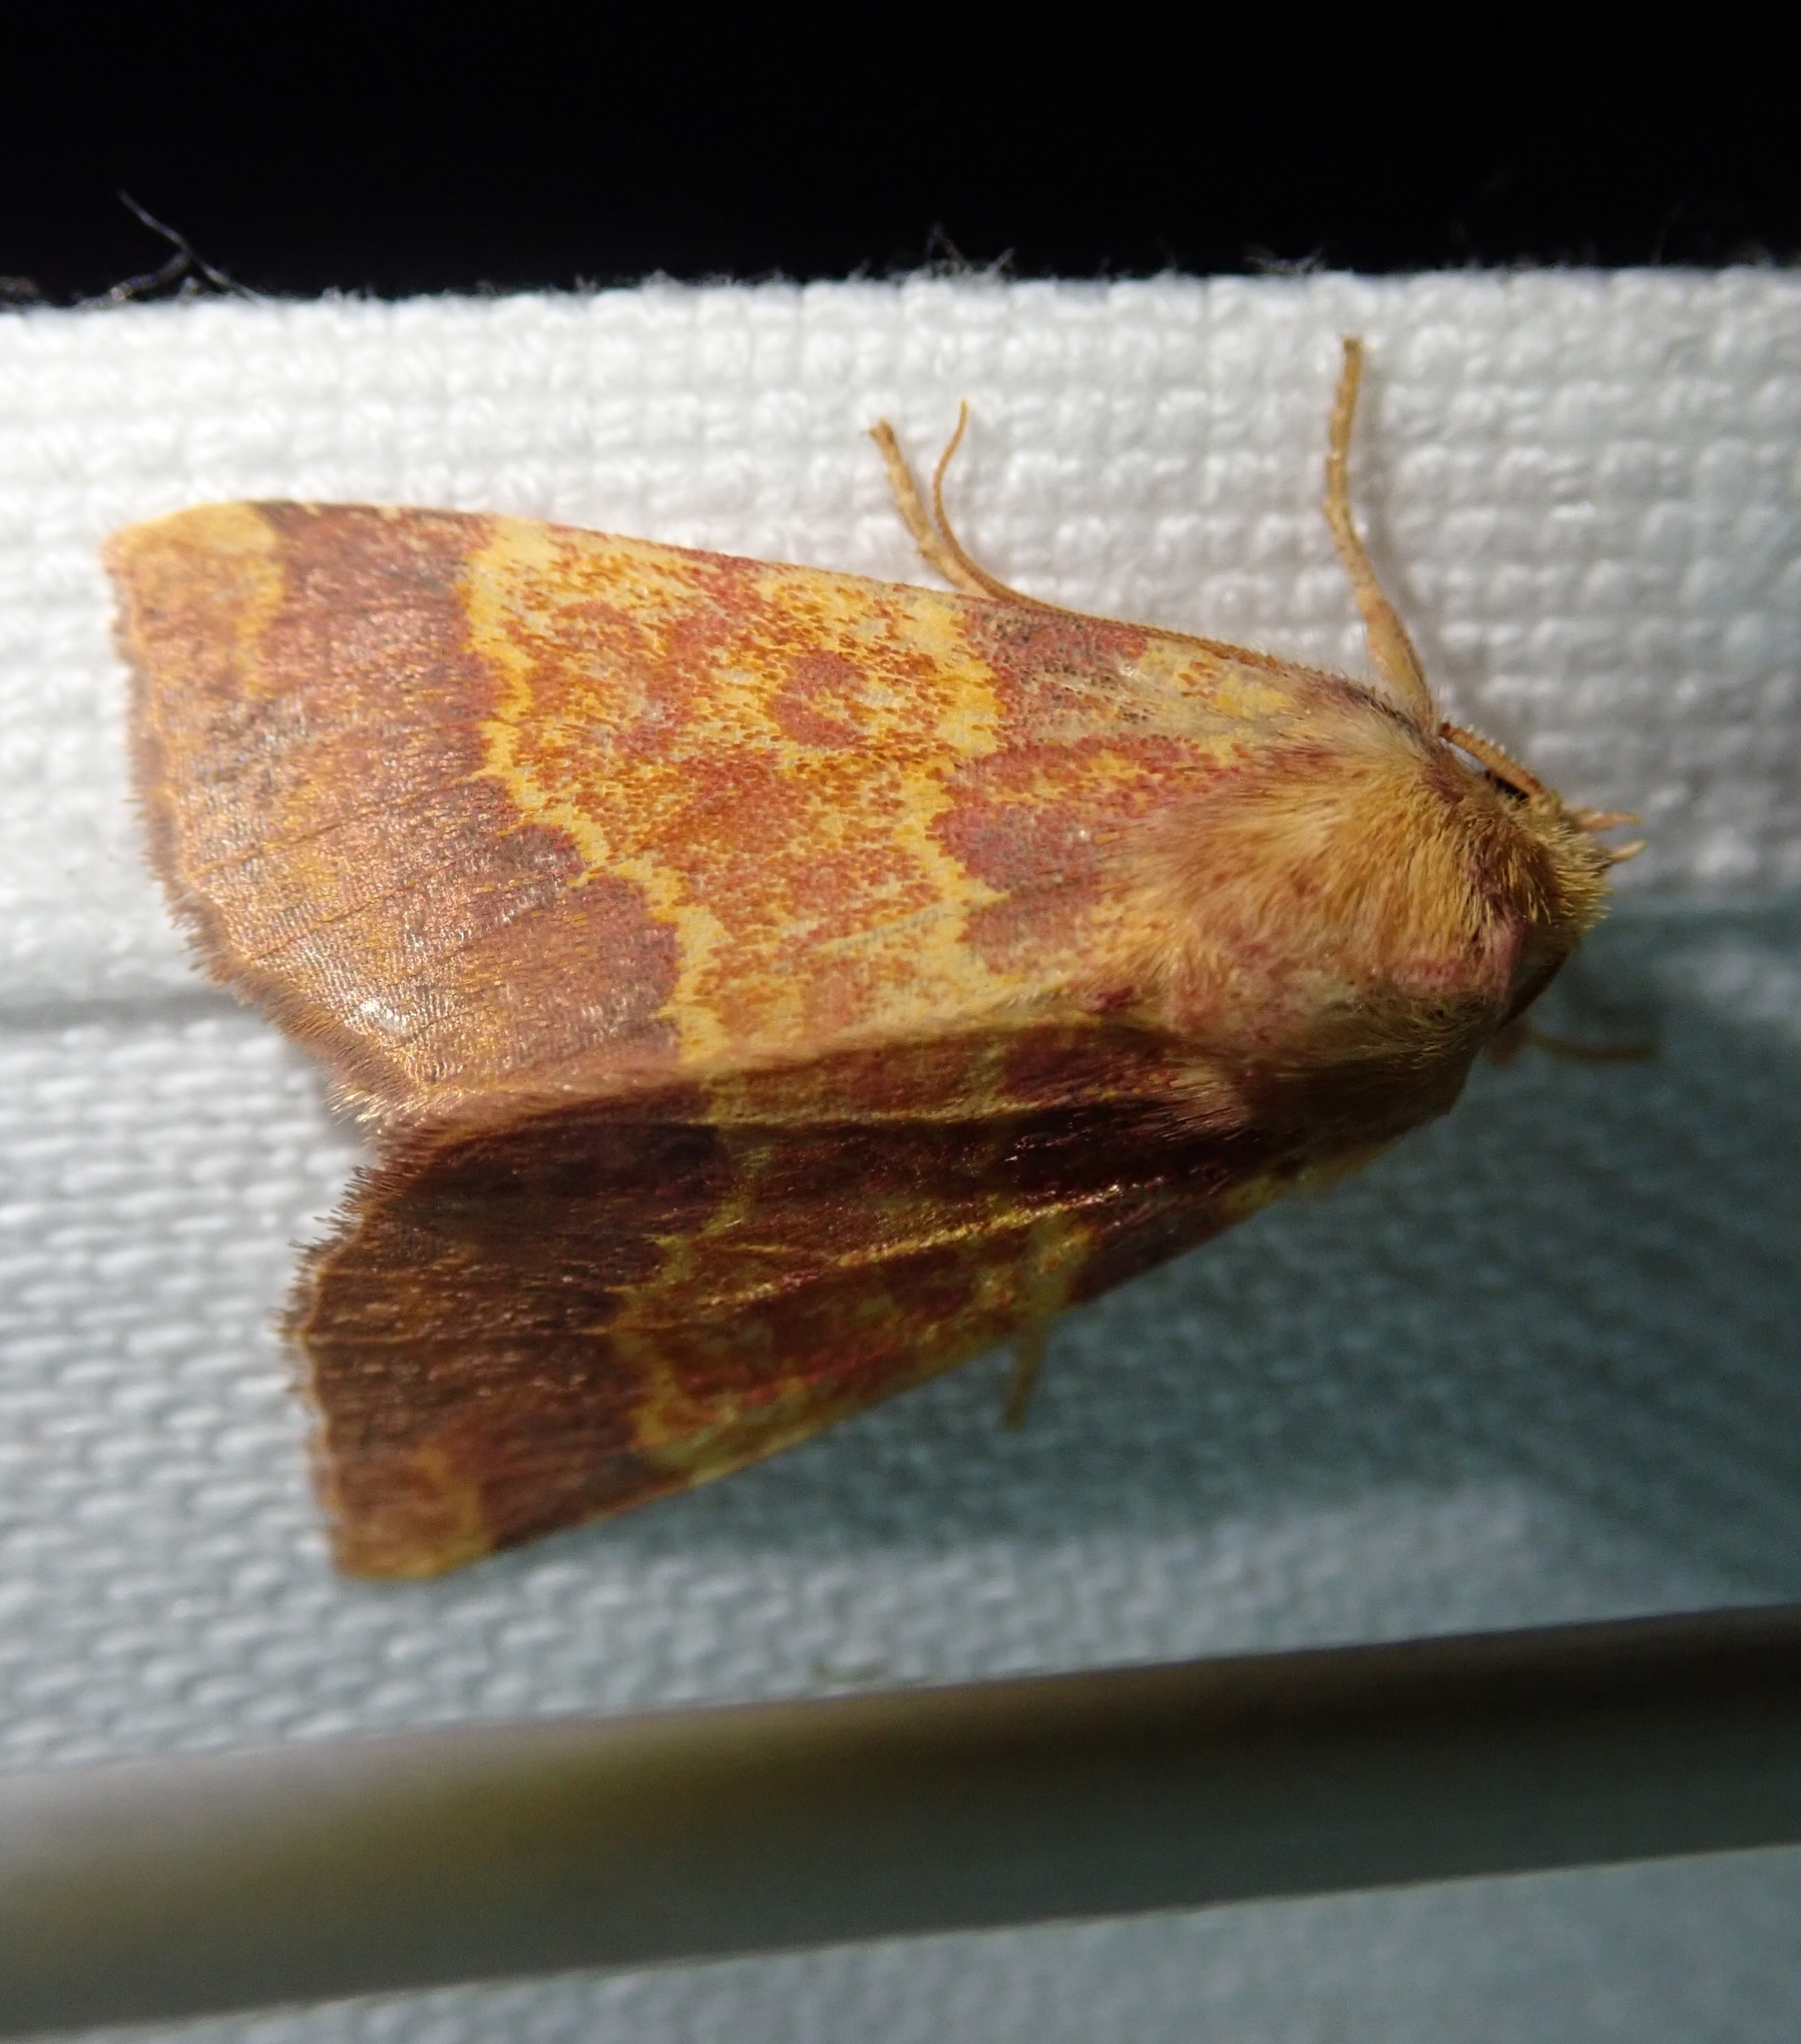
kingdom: Animalia
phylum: Arthropoda
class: Insecta
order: Lepidoptera
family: Noctuidae
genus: Tiliacea
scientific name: Tiliacea aurago
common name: Barred sallow
